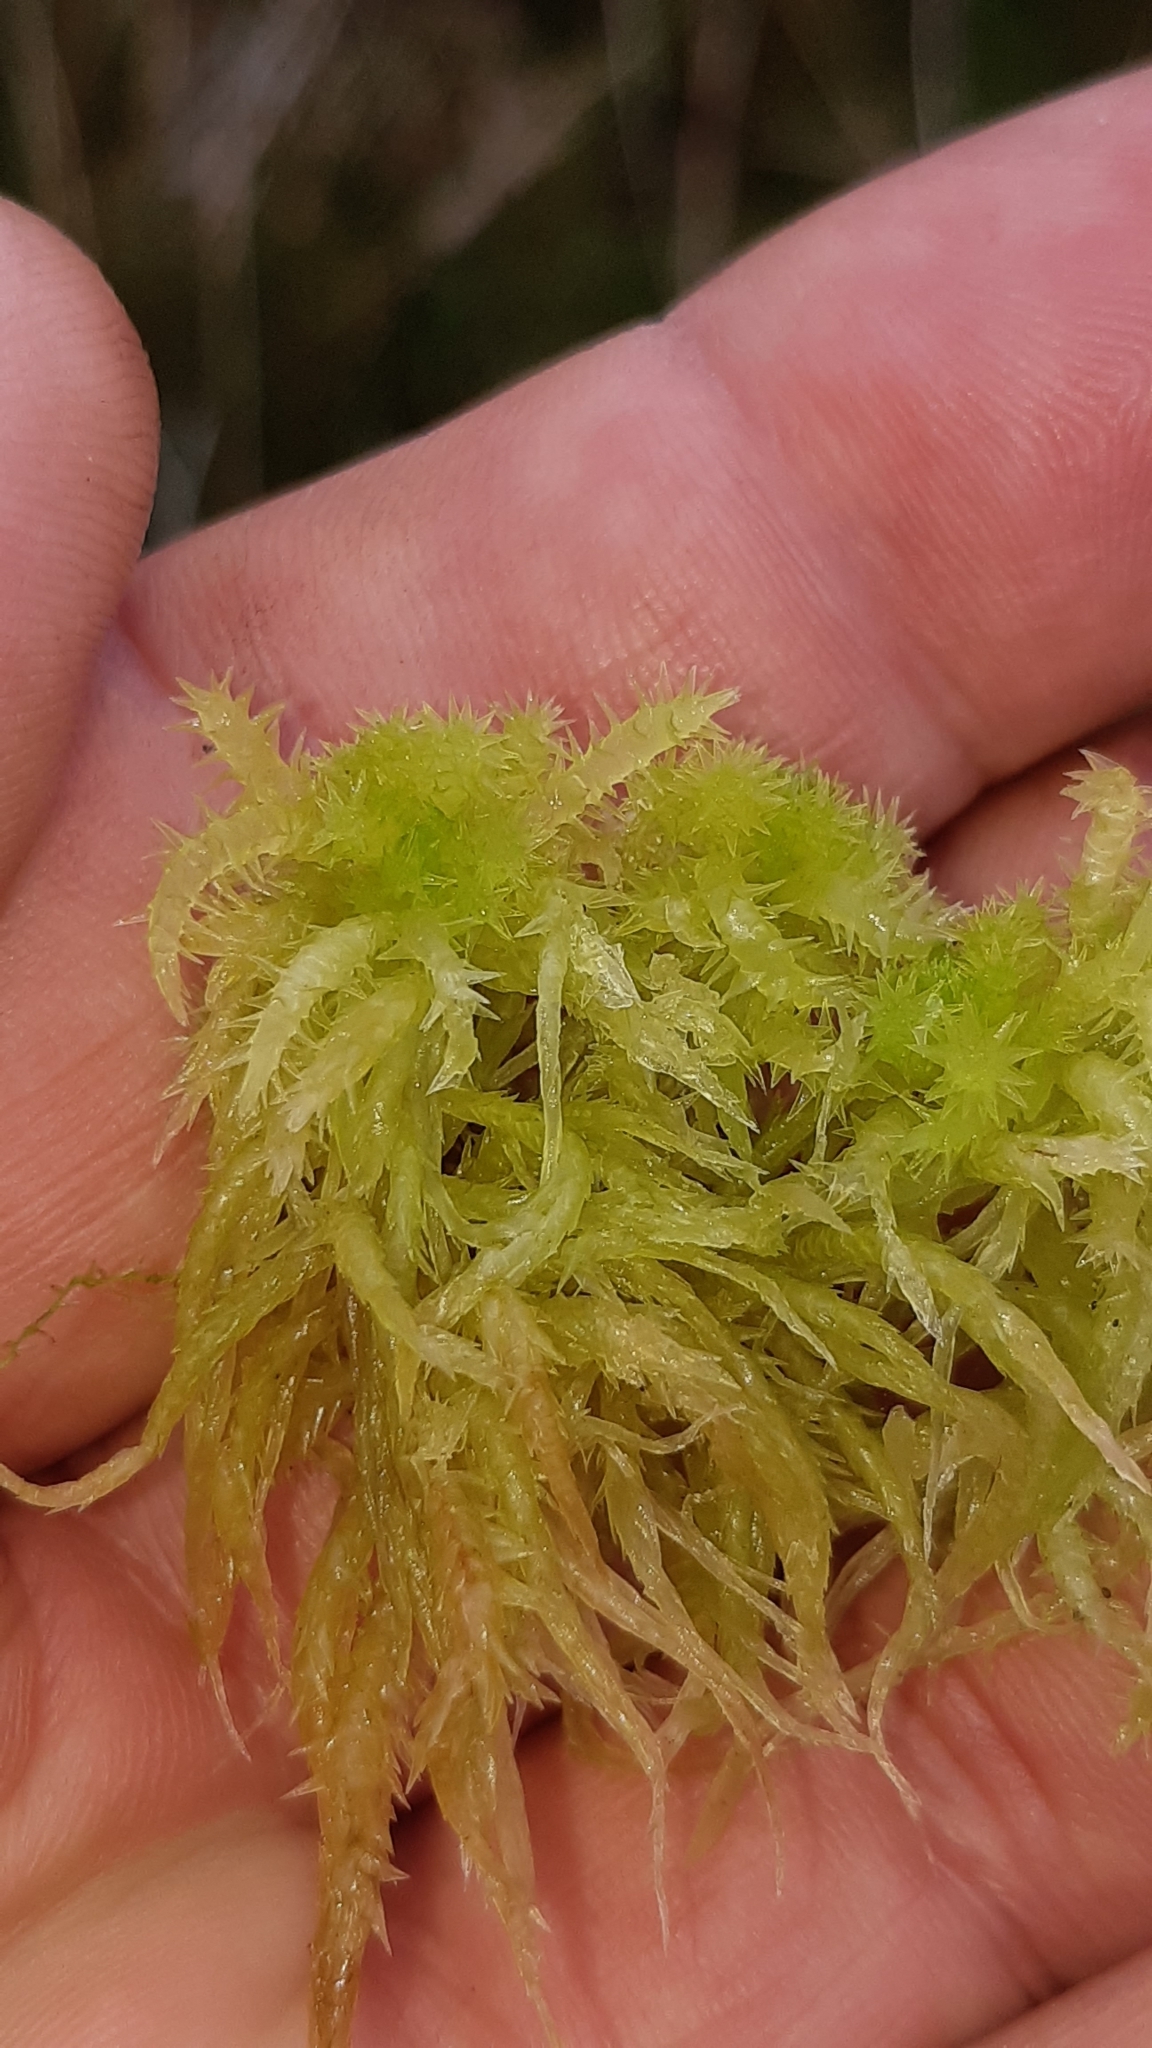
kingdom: Plantae
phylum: Bryophyta
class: Sphagnopsida
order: Sphagnales
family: Sphagnaceae
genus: Sphagnum
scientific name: Sphagnum squarrosum
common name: Shaggy peat moss
